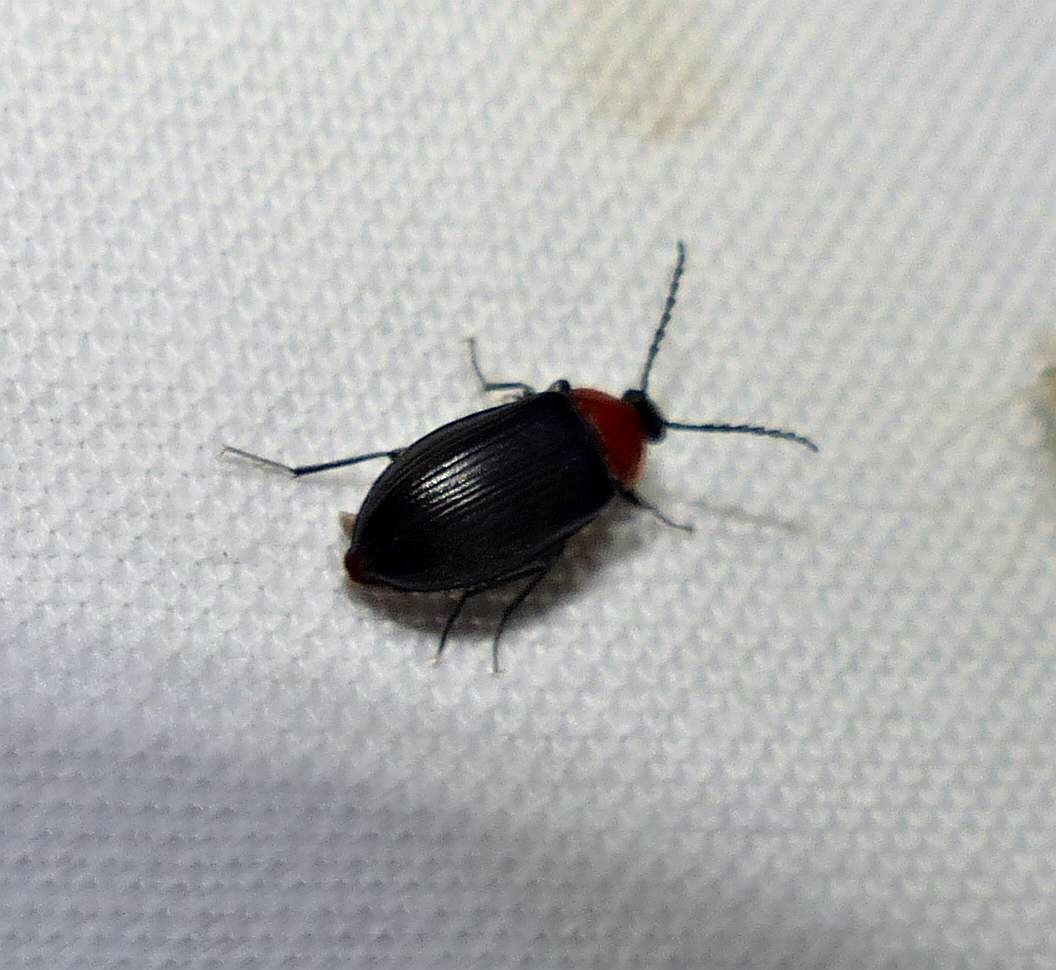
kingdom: Animalia
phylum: Arthropoda
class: Insecta
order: Coleoptera
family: Tenebrionidae
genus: Chromatia
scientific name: Chromatia amoena
